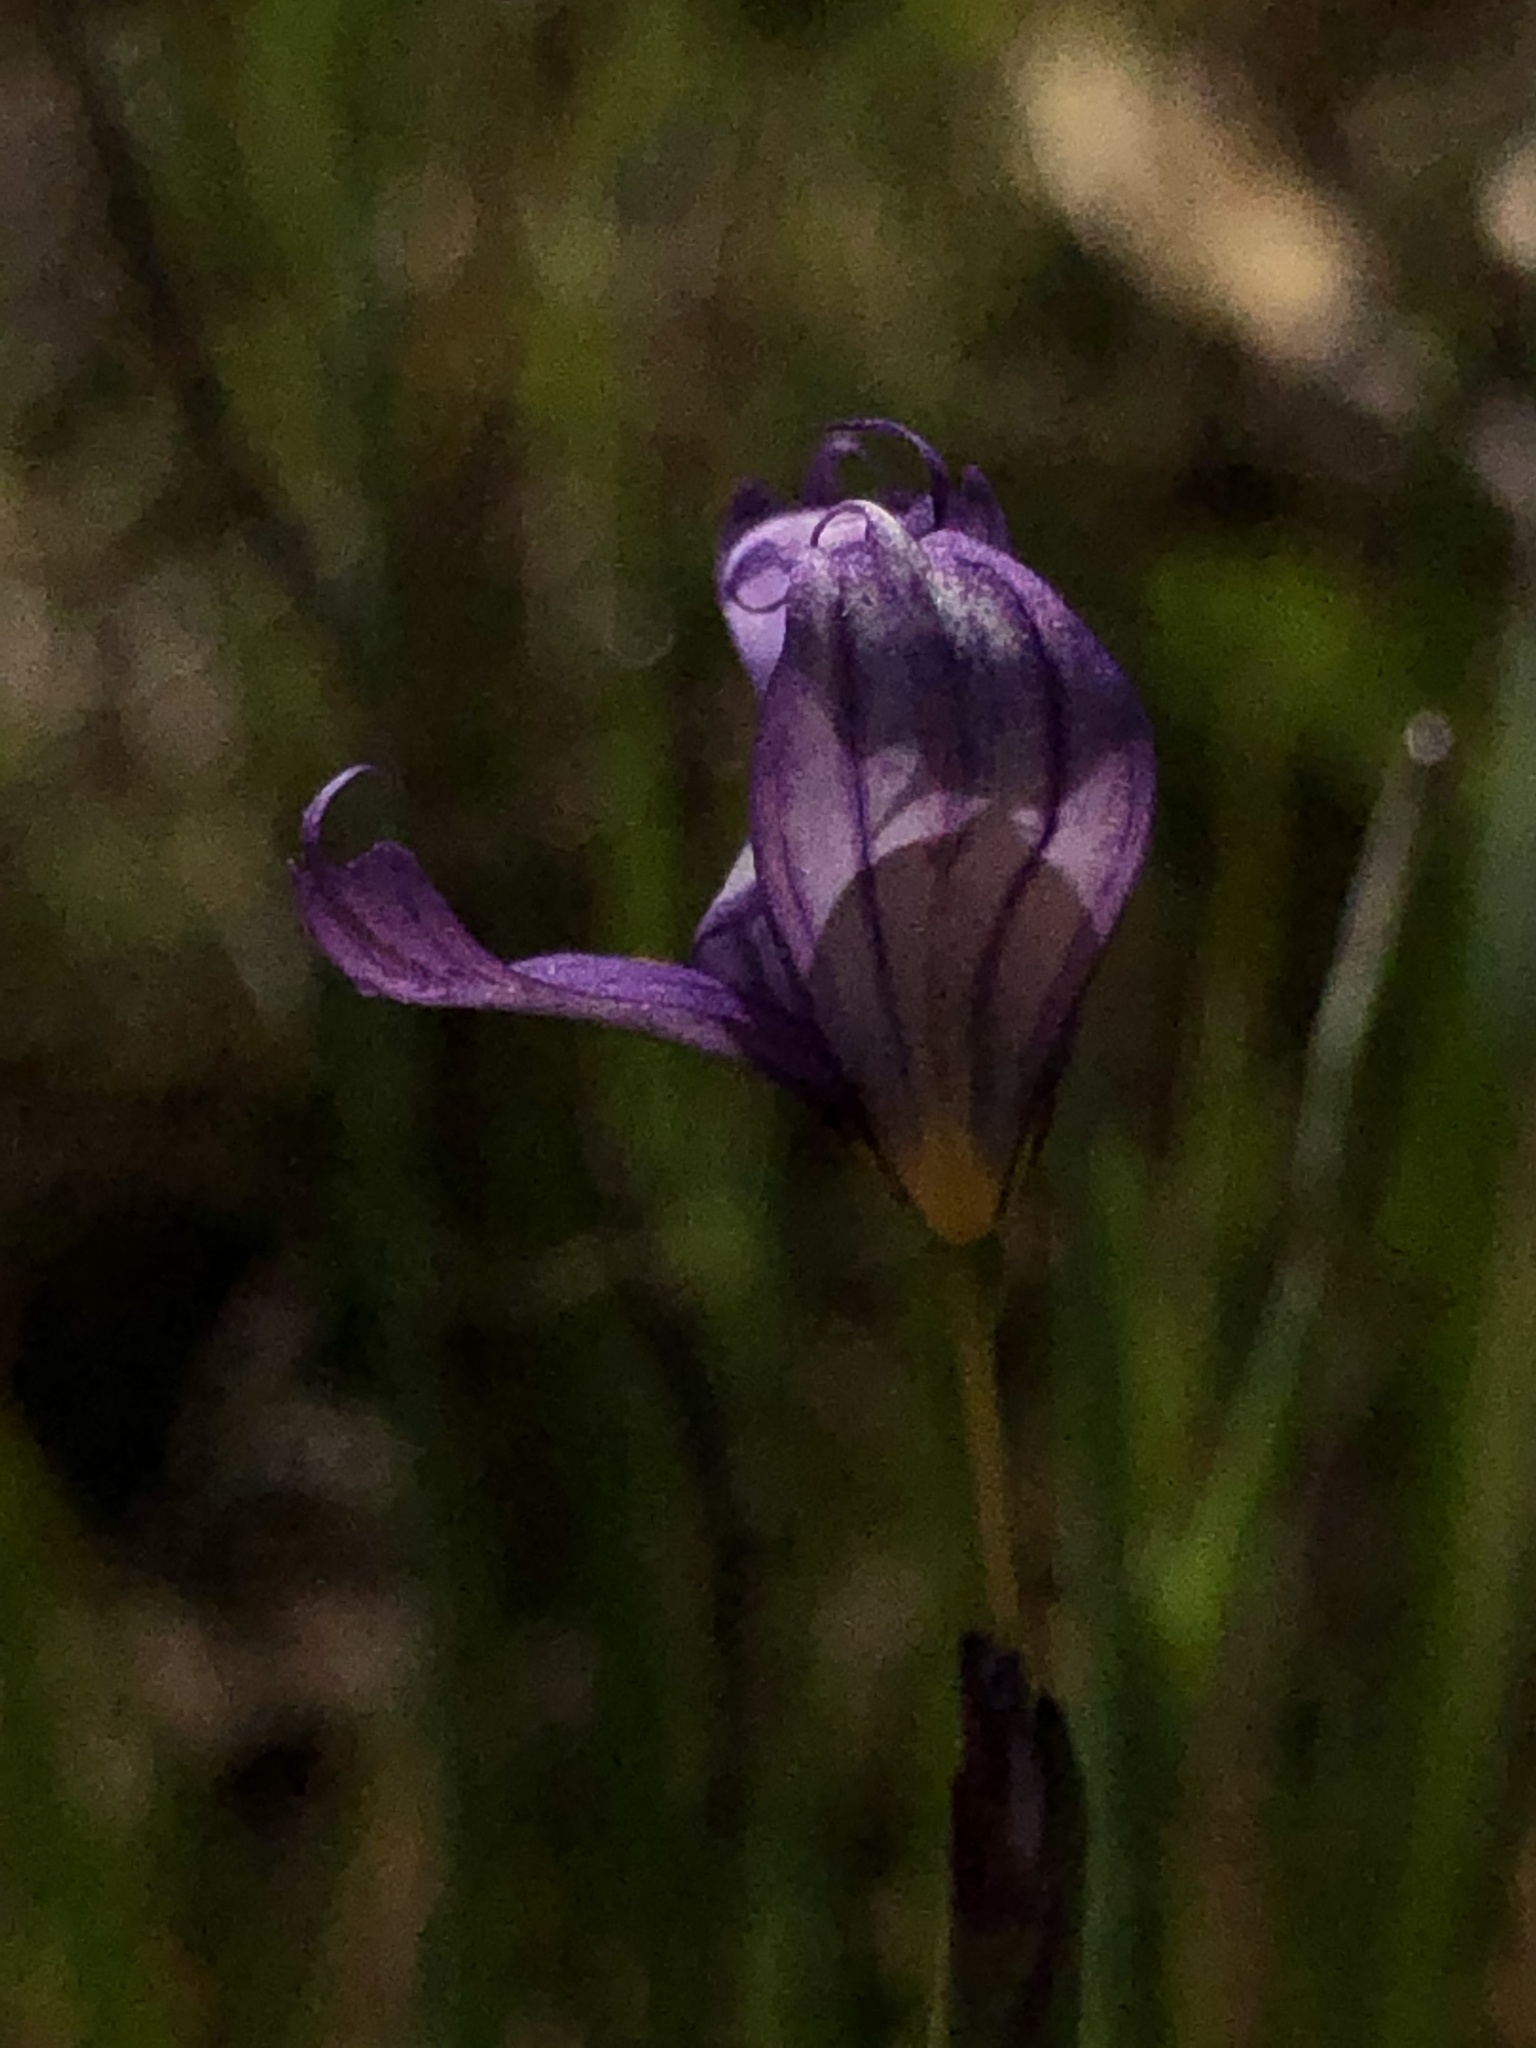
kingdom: Plantae
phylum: Tracheophyta
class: Liliopsida
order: Asparagales
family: Iridaceae
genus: Sisyrinchium
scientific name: Sisyrinchium bellum
